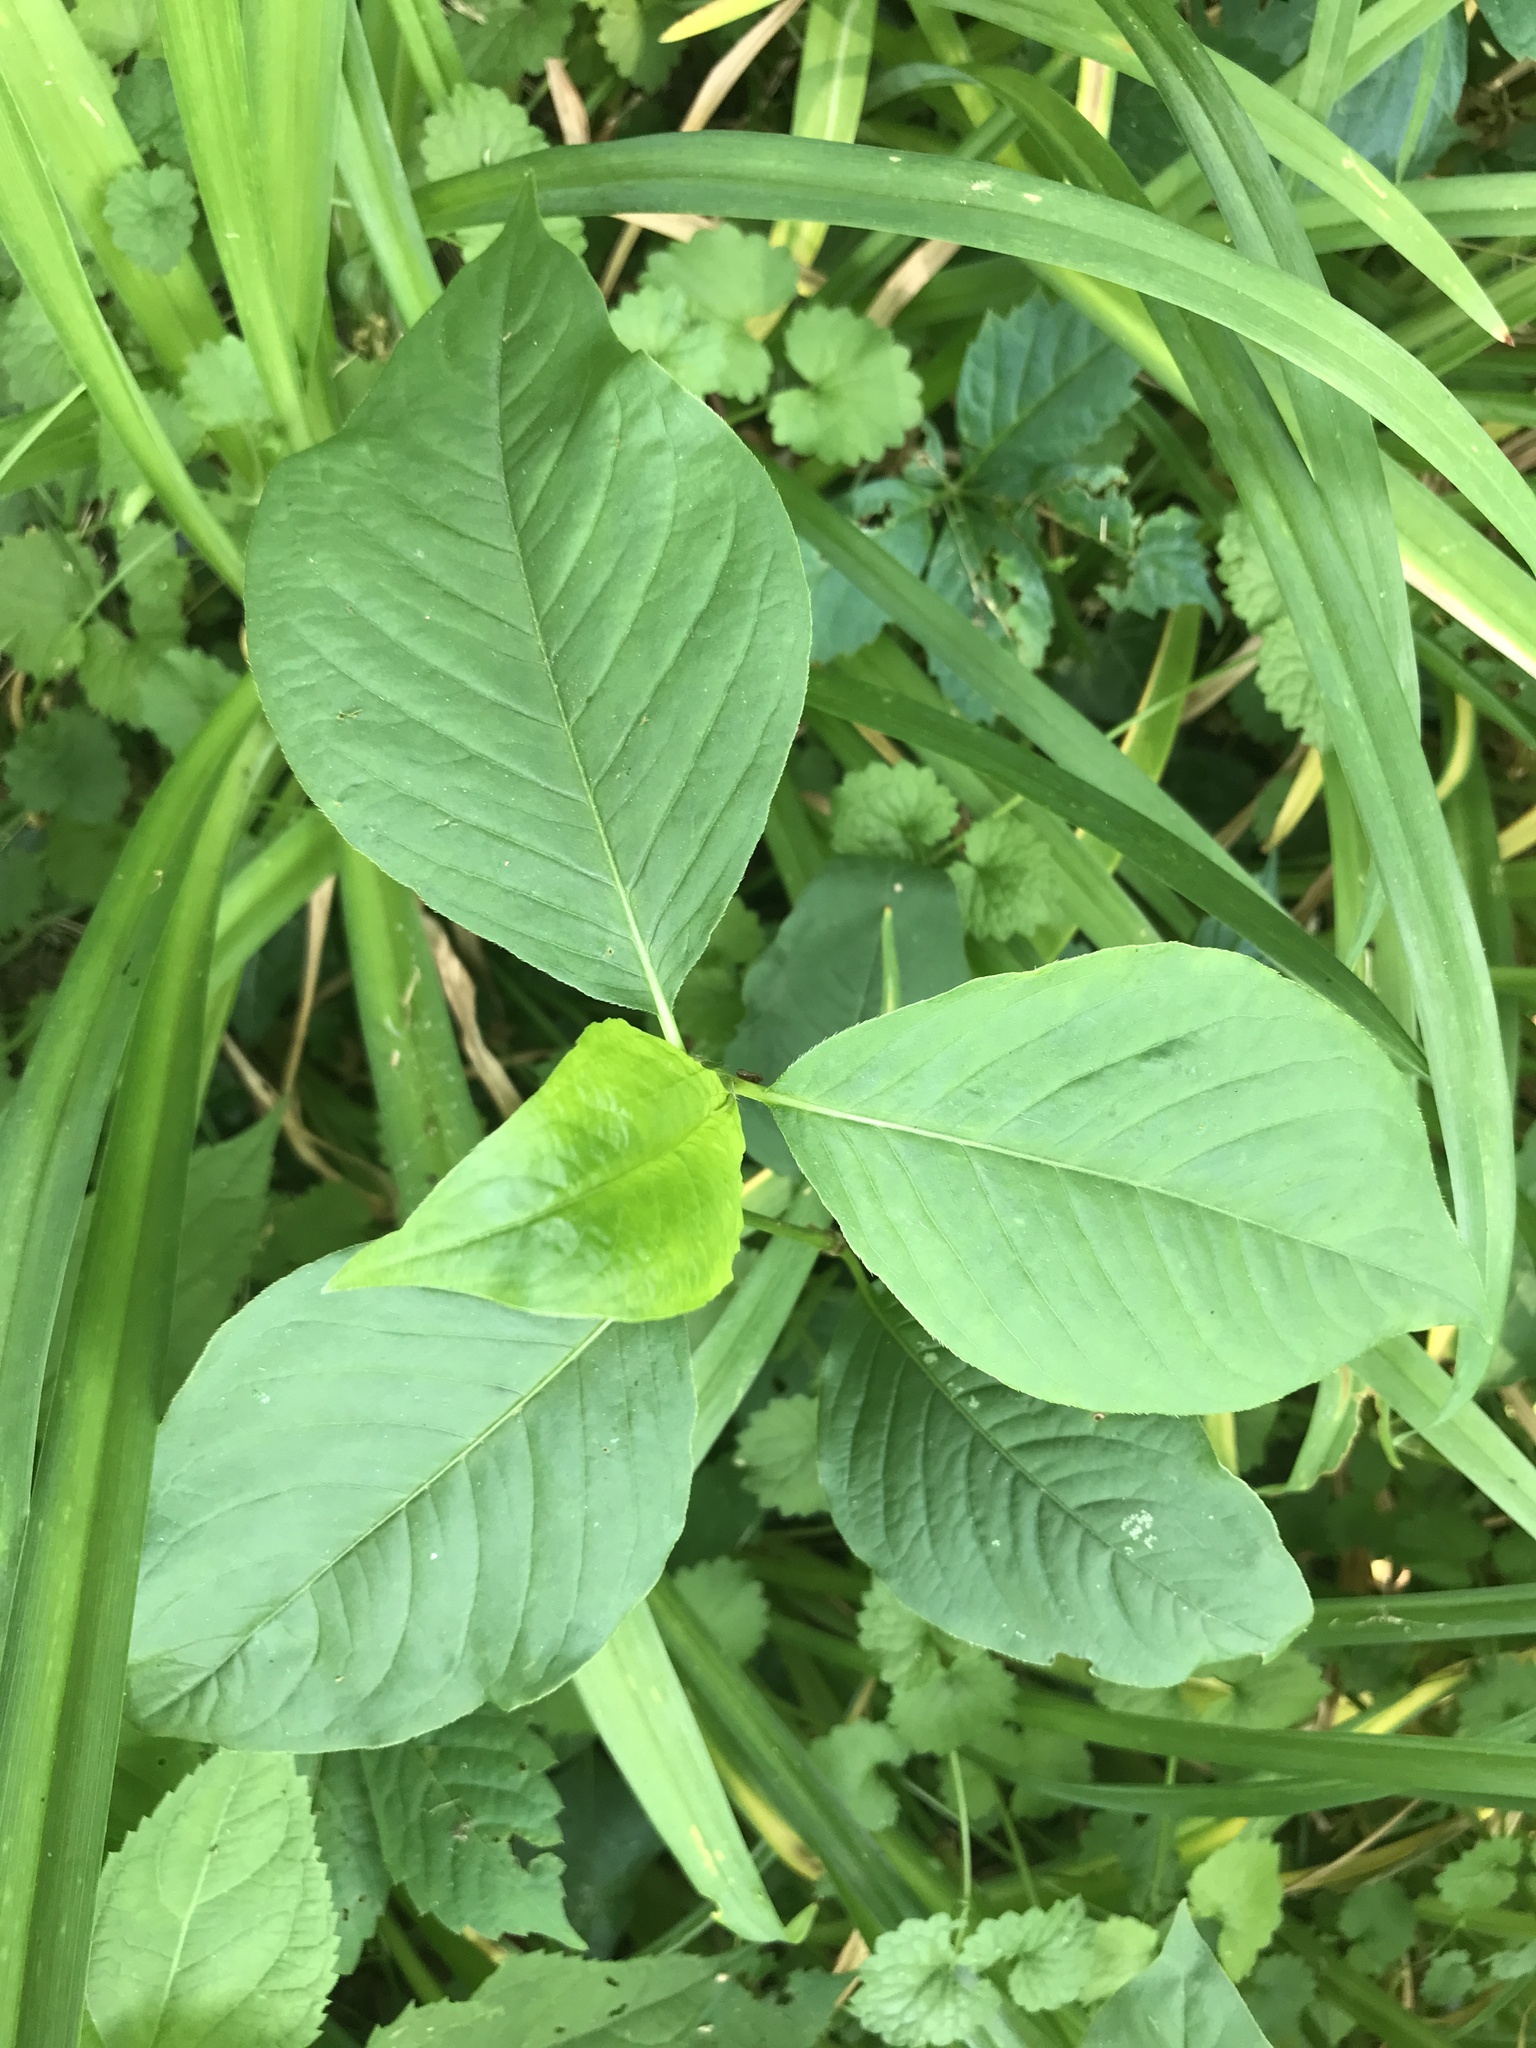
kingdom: Plantae
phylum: Tracheophyta
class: Magnoliopsida
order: Caryophyllales
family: Polygonaceae
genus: Persicaria
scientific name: Persicaria virginiana
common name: Jumpseed
